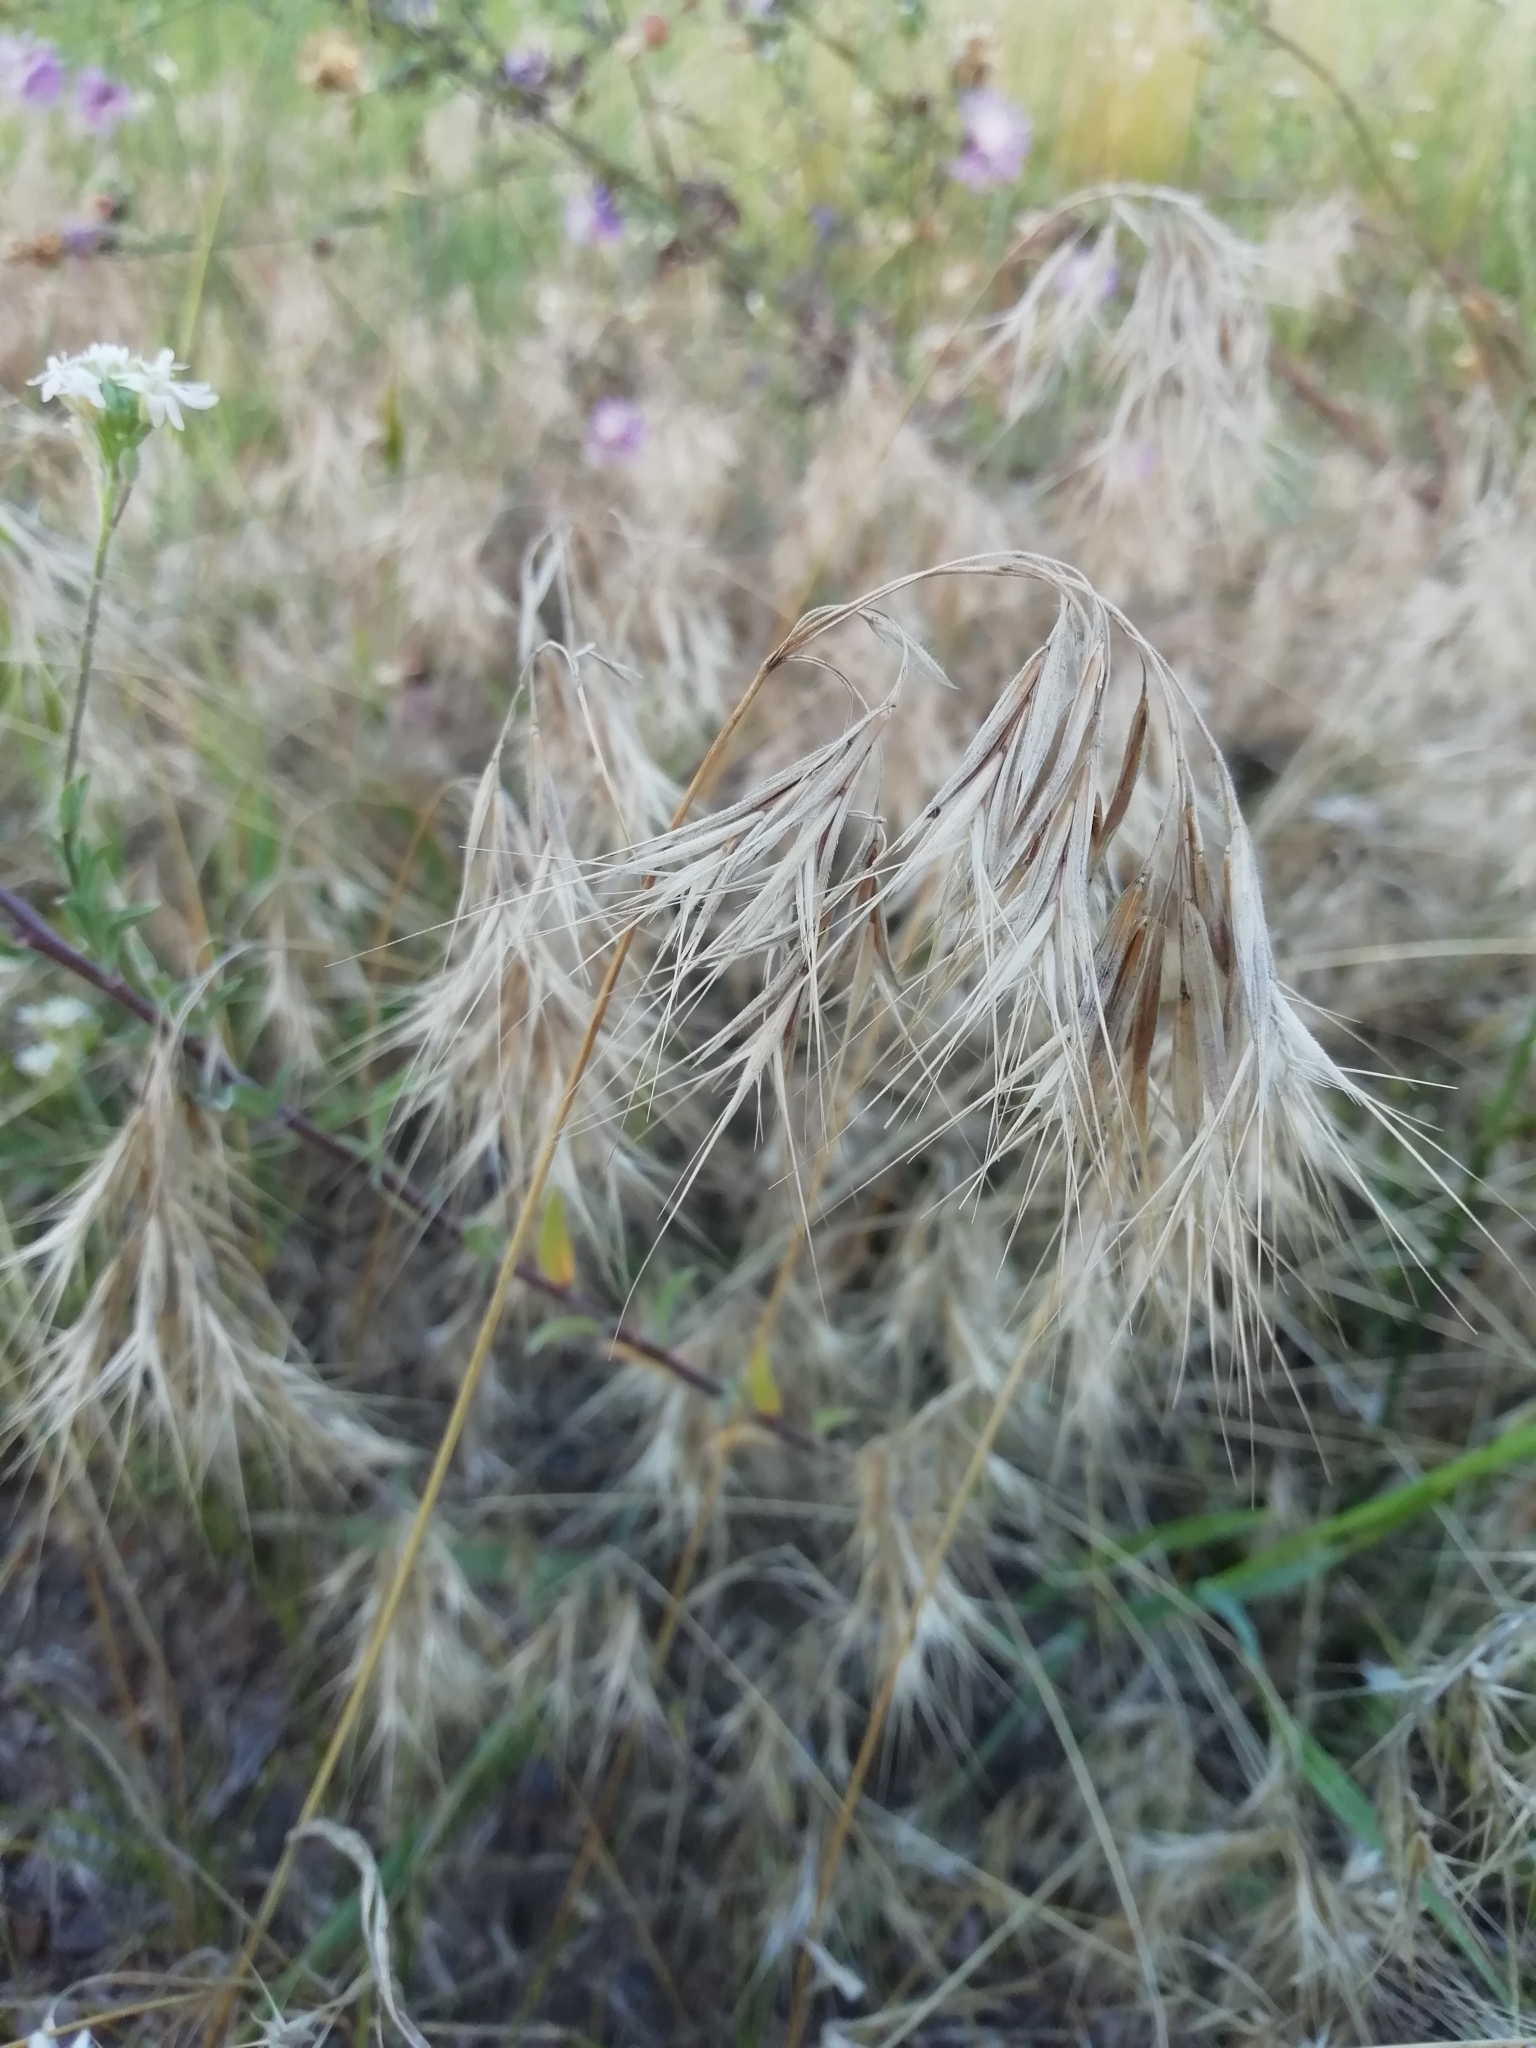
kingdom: Plantae
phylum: Tracheophyta
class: Liliopsida
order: Poales
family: Poaceae
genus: Bromus
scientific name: Bromus tectorum
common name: Cheatgrass
